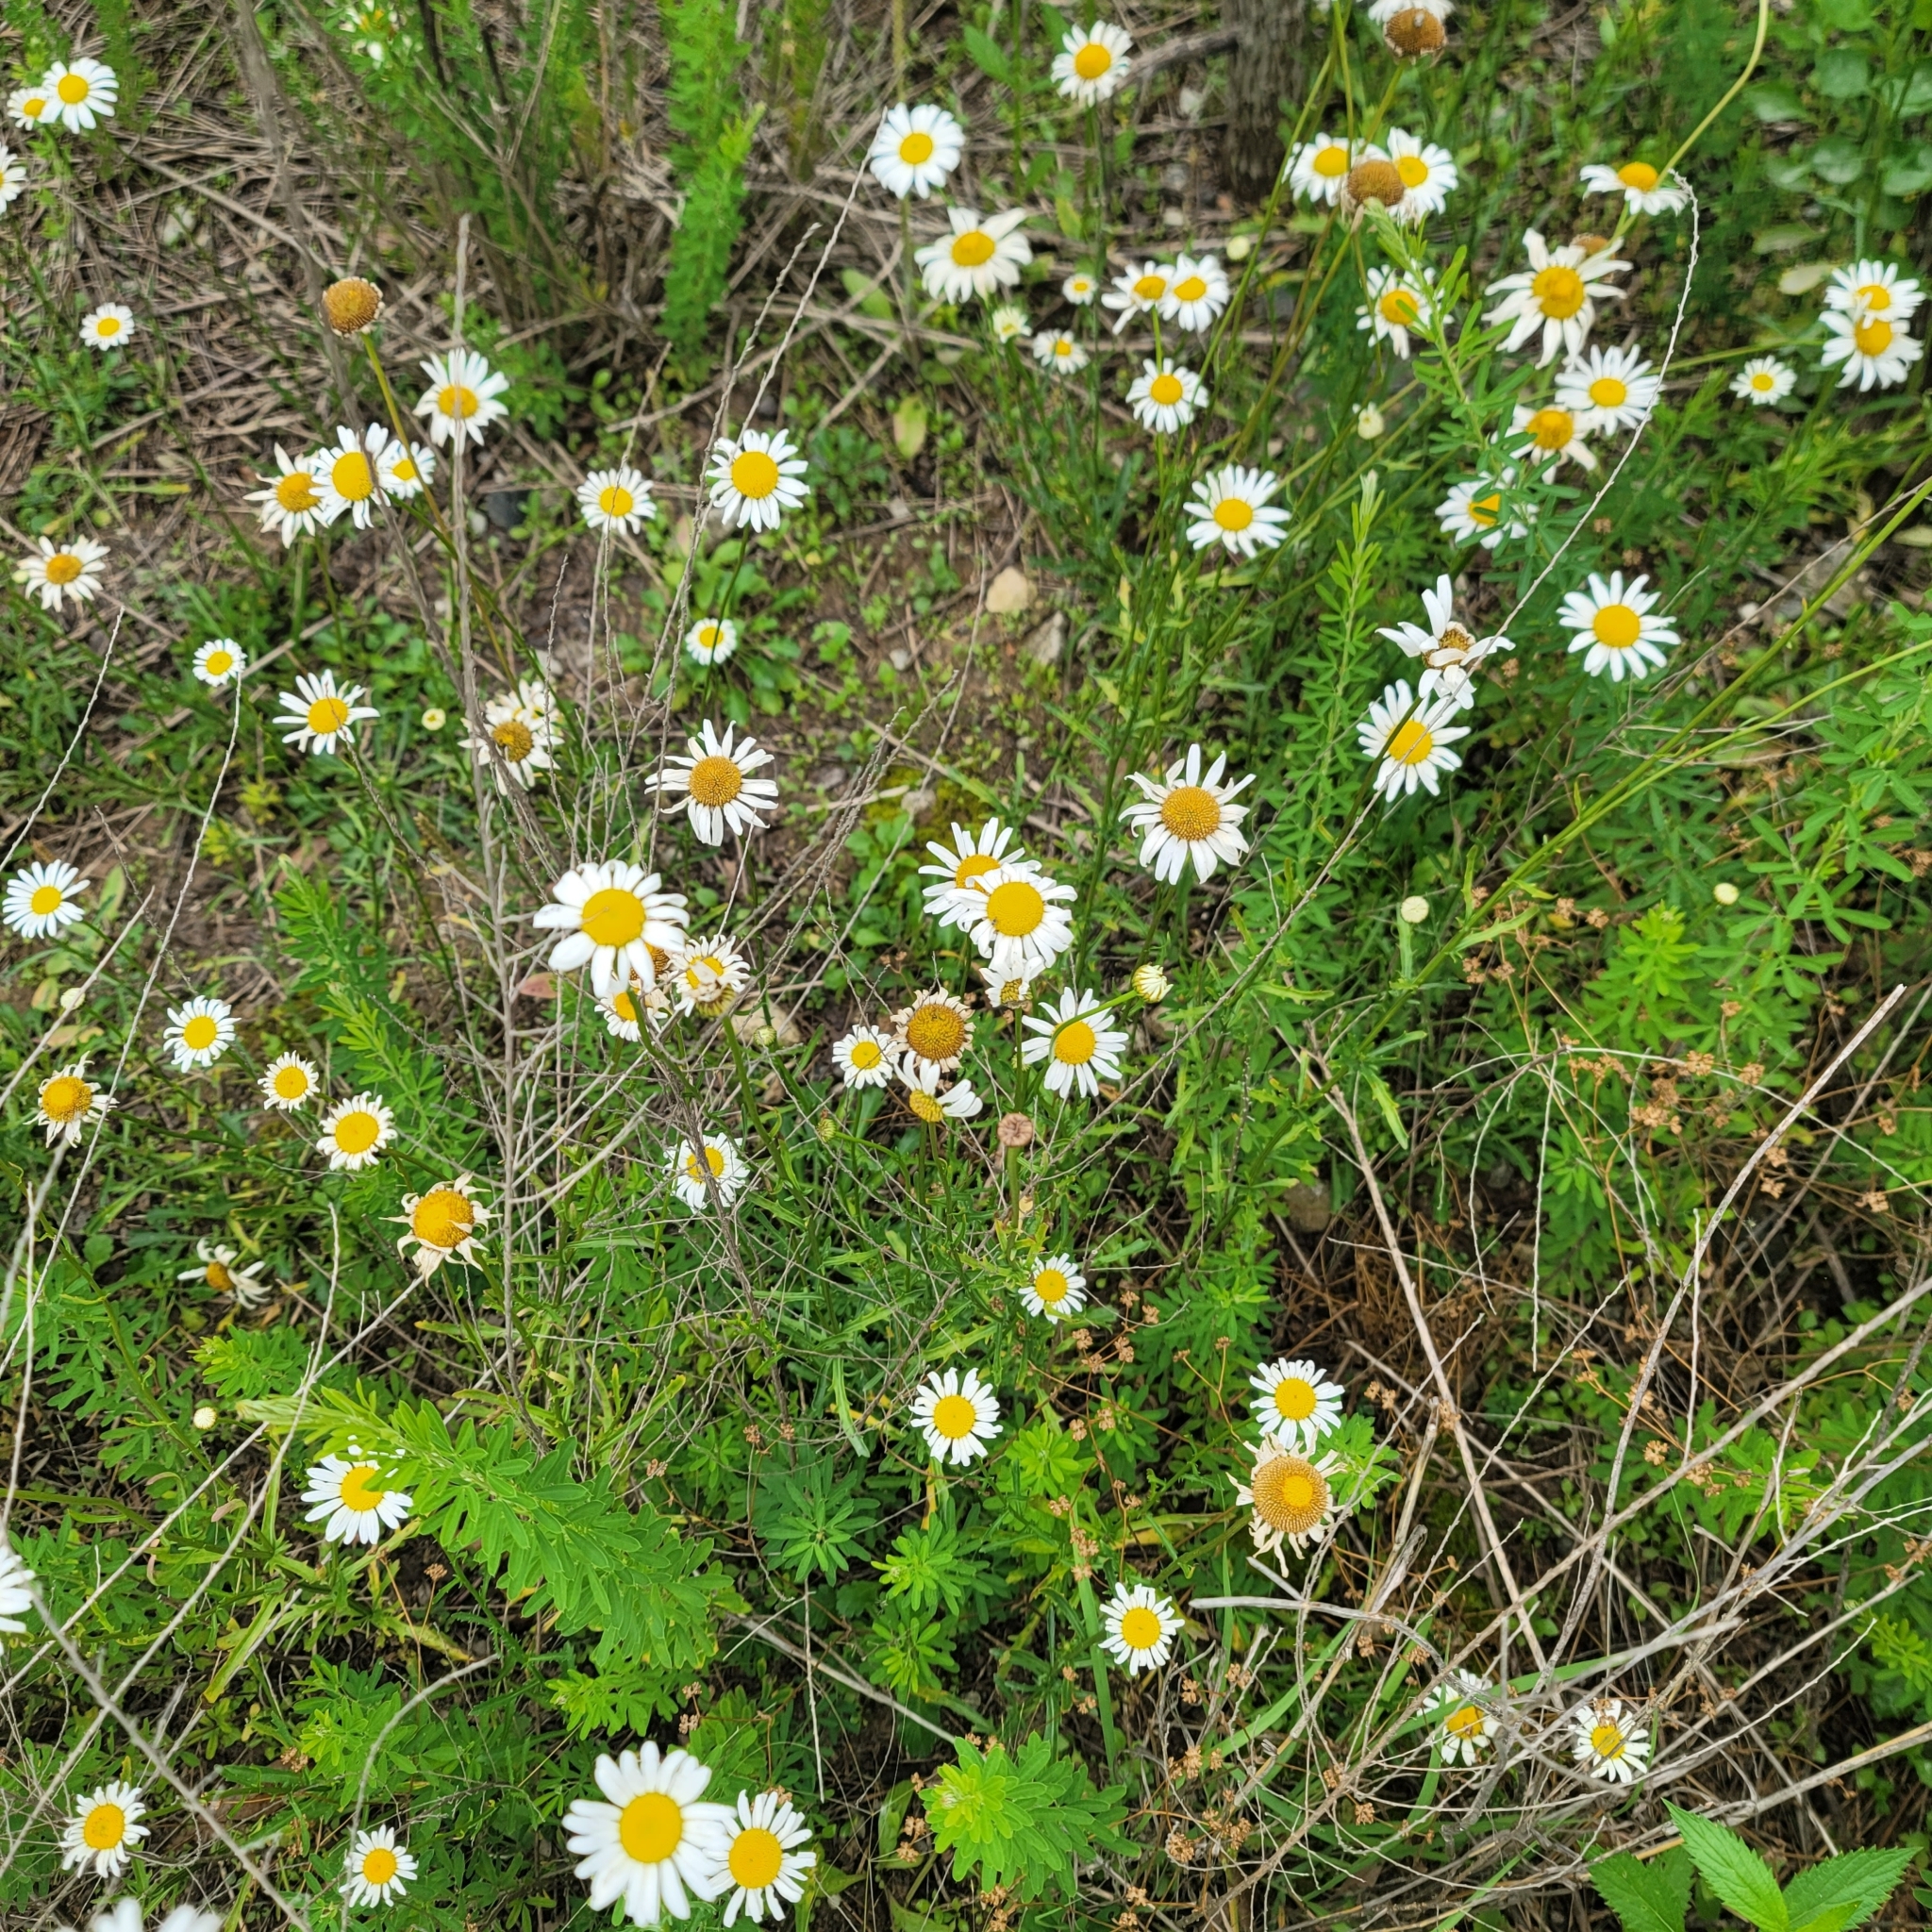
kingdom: Plantae
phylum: Tracheophyta
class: Magnoliopsida
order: Asterales
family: Asteraceae
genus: Leucanthemum
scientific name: Leucanthemum vulgare
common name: Oxeye daisy
